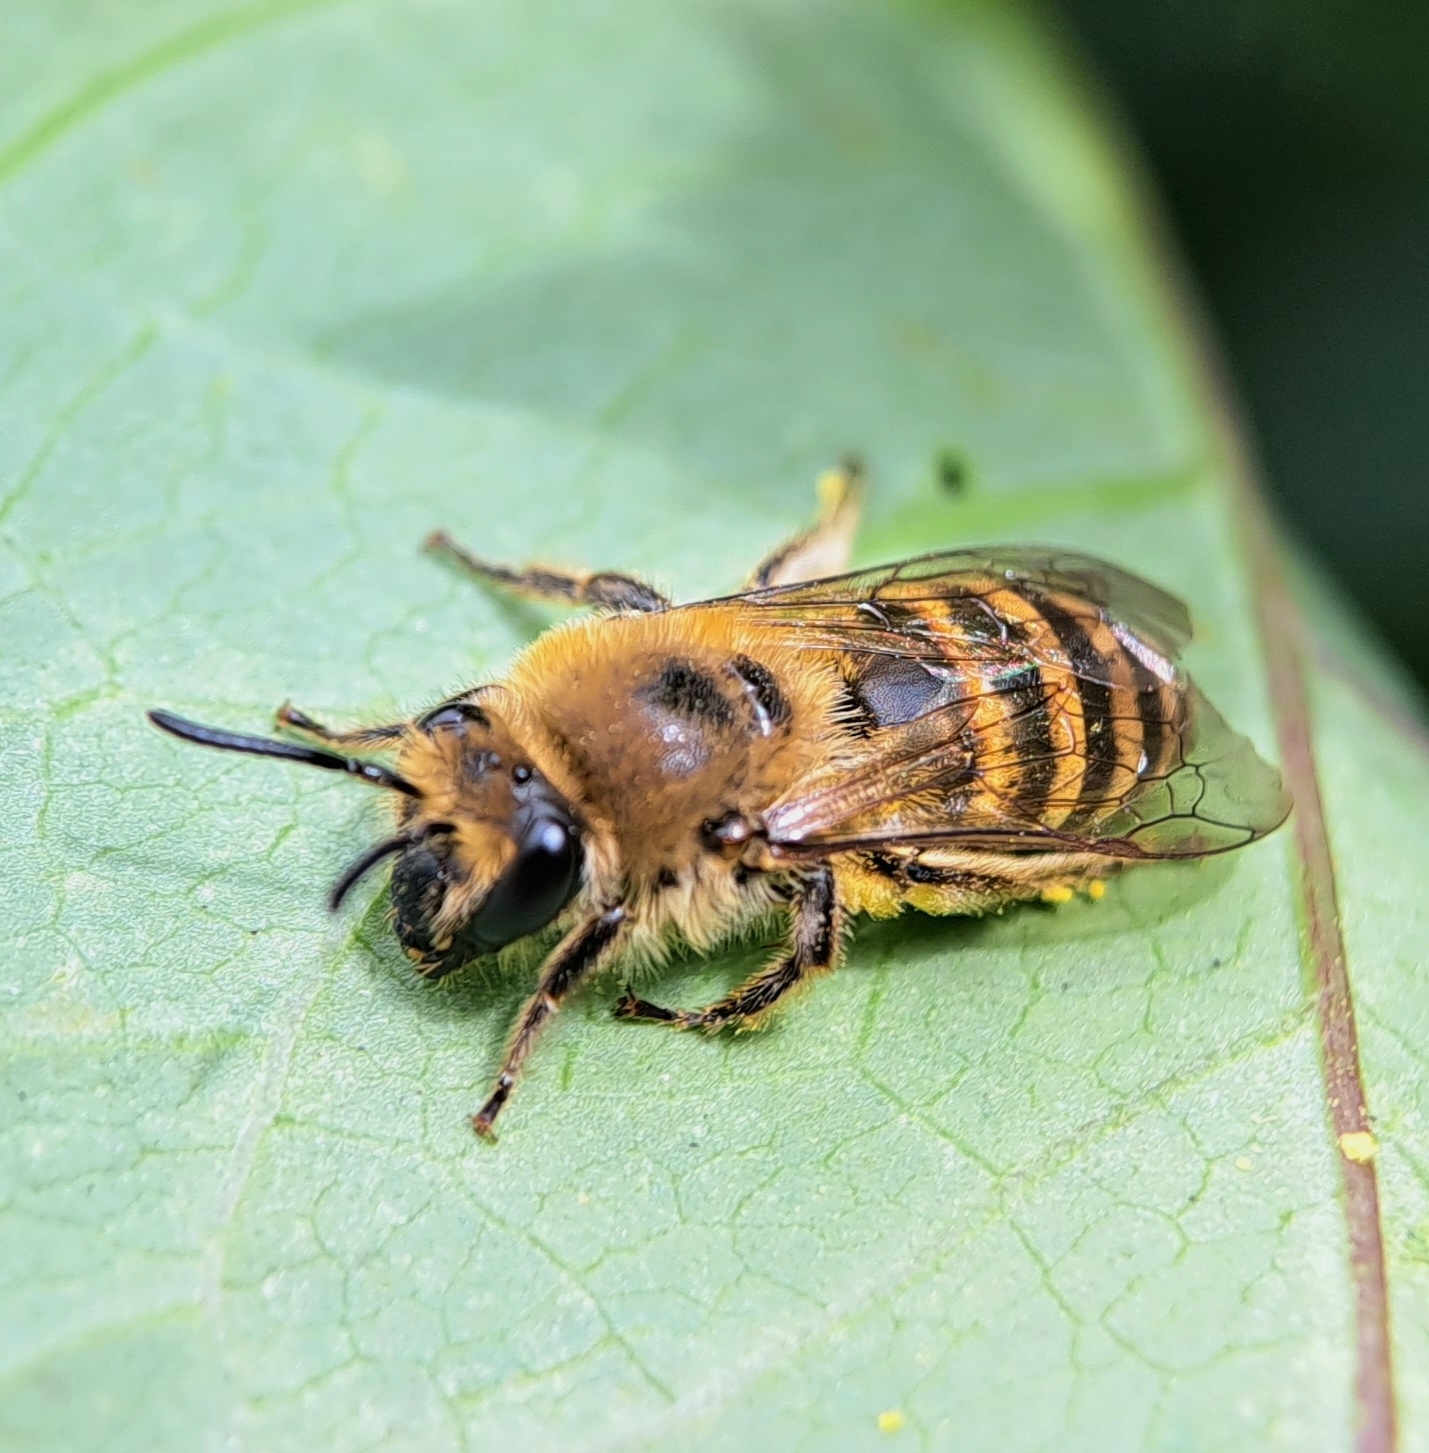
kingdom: Animalia
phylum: Arthropoda
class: Insecta
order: Hymenoptera
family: Colletidae
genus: Colletes
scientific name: Colletes hederae
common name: Ivy bee
